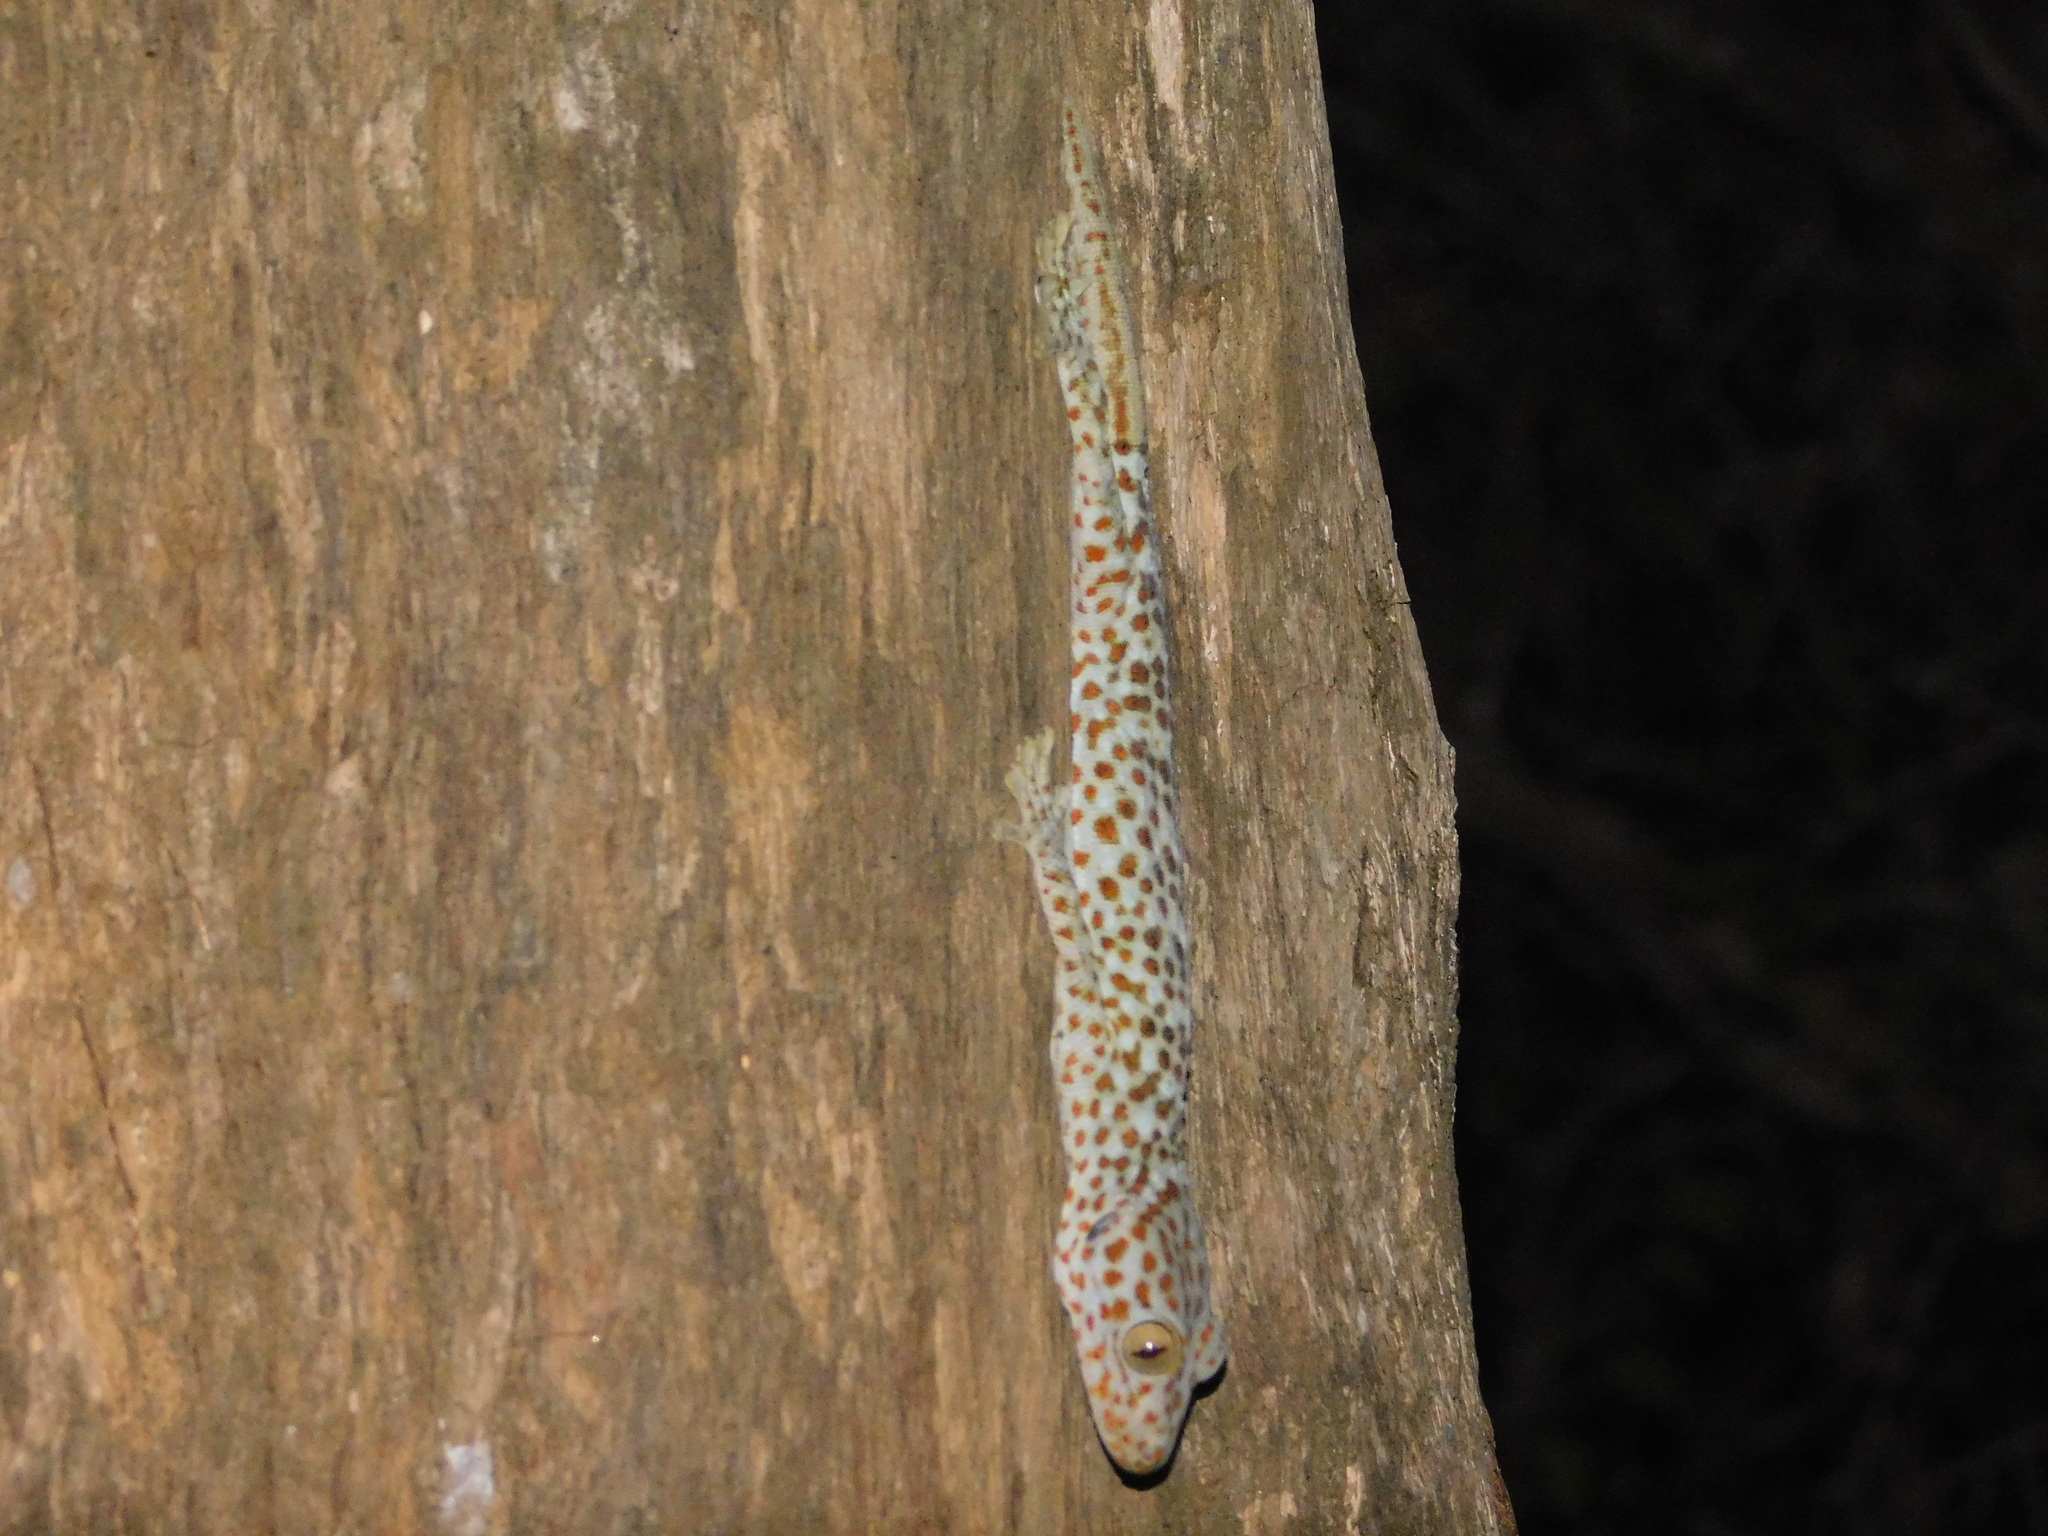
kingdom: Animalia
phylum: Chordata
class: Squamata
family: Gekkonidae
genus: Gekko
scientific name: Gekko gecko
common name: Tokay gecko
